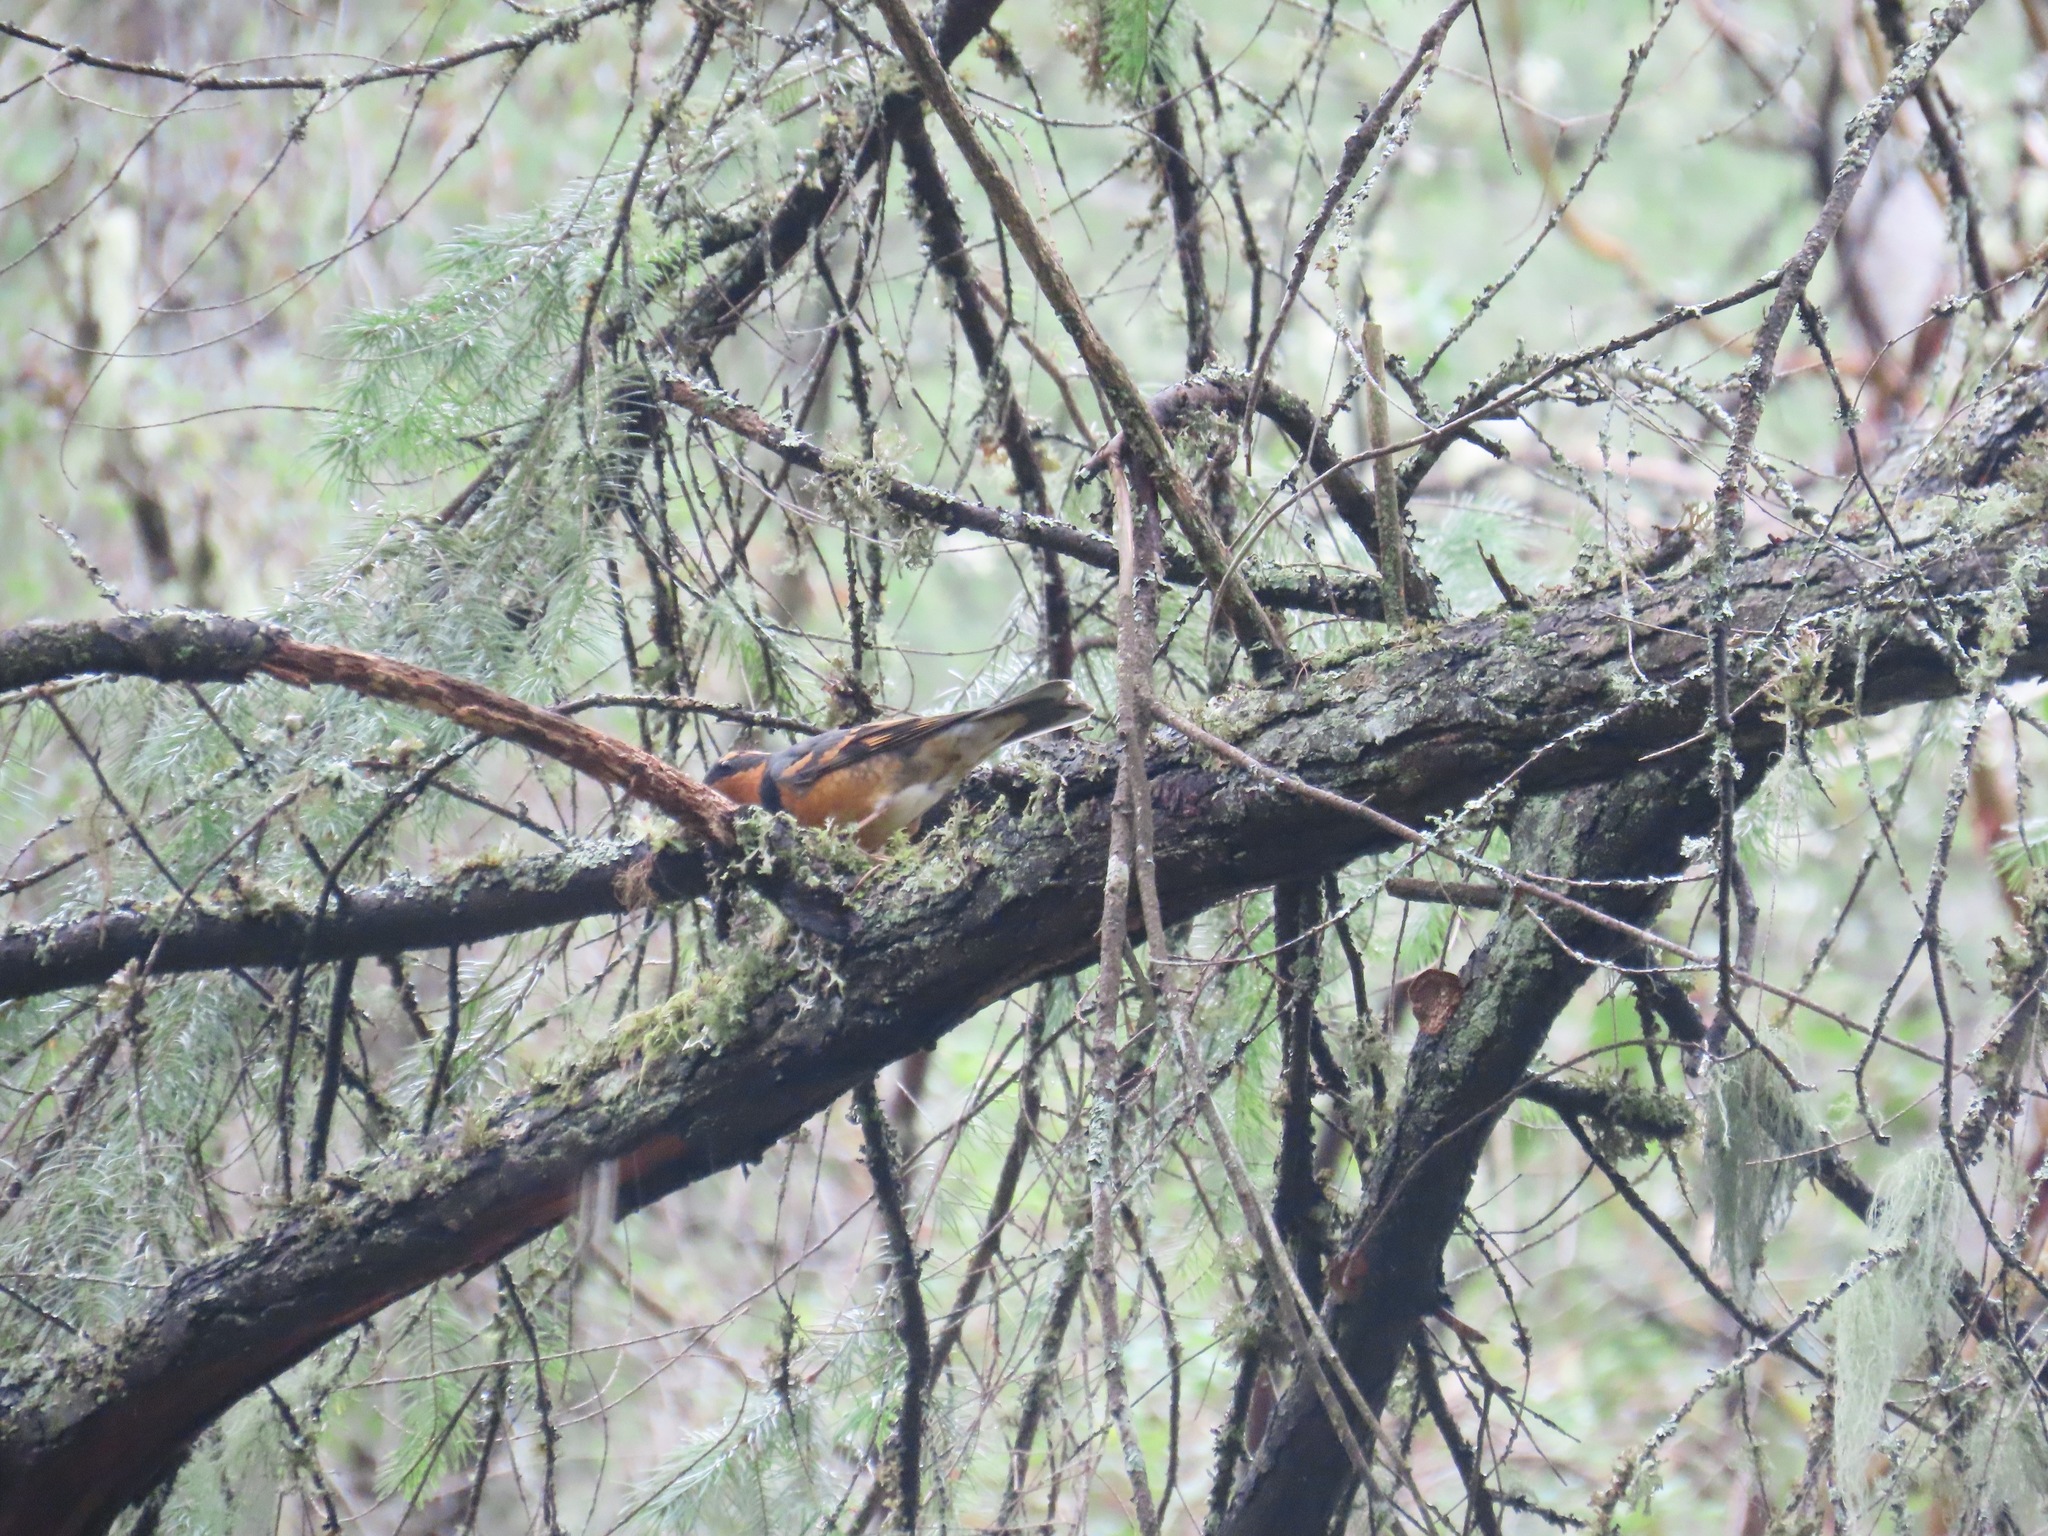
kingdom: Animalia
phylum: Chordata
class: Aves
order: Passeriformes
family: Turdidae
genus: Ixoreus
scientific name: Ixoreus naevius
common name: Varied thrush
